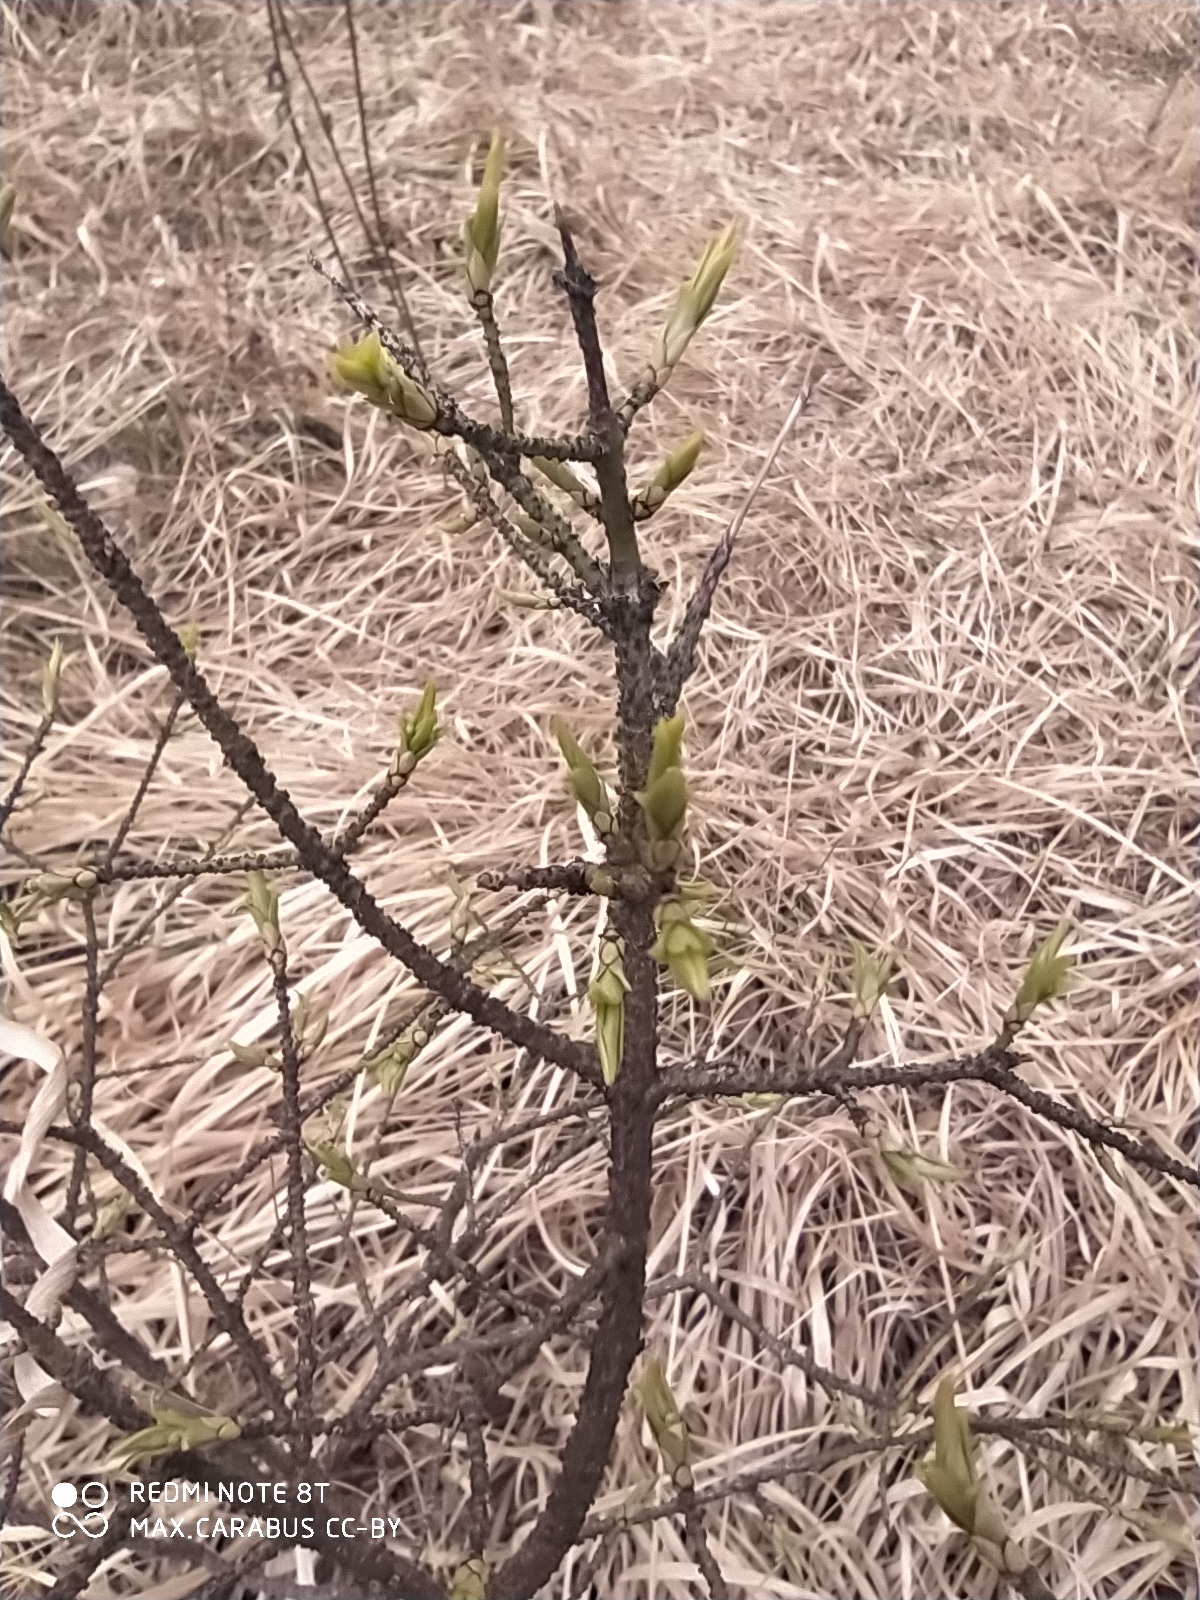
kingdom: Plantae
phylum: Tracheophyta
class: Magnoliopsida
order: Celastrales
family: Celastraceae
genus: Euonymus
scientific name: Euonymus verrucosus
